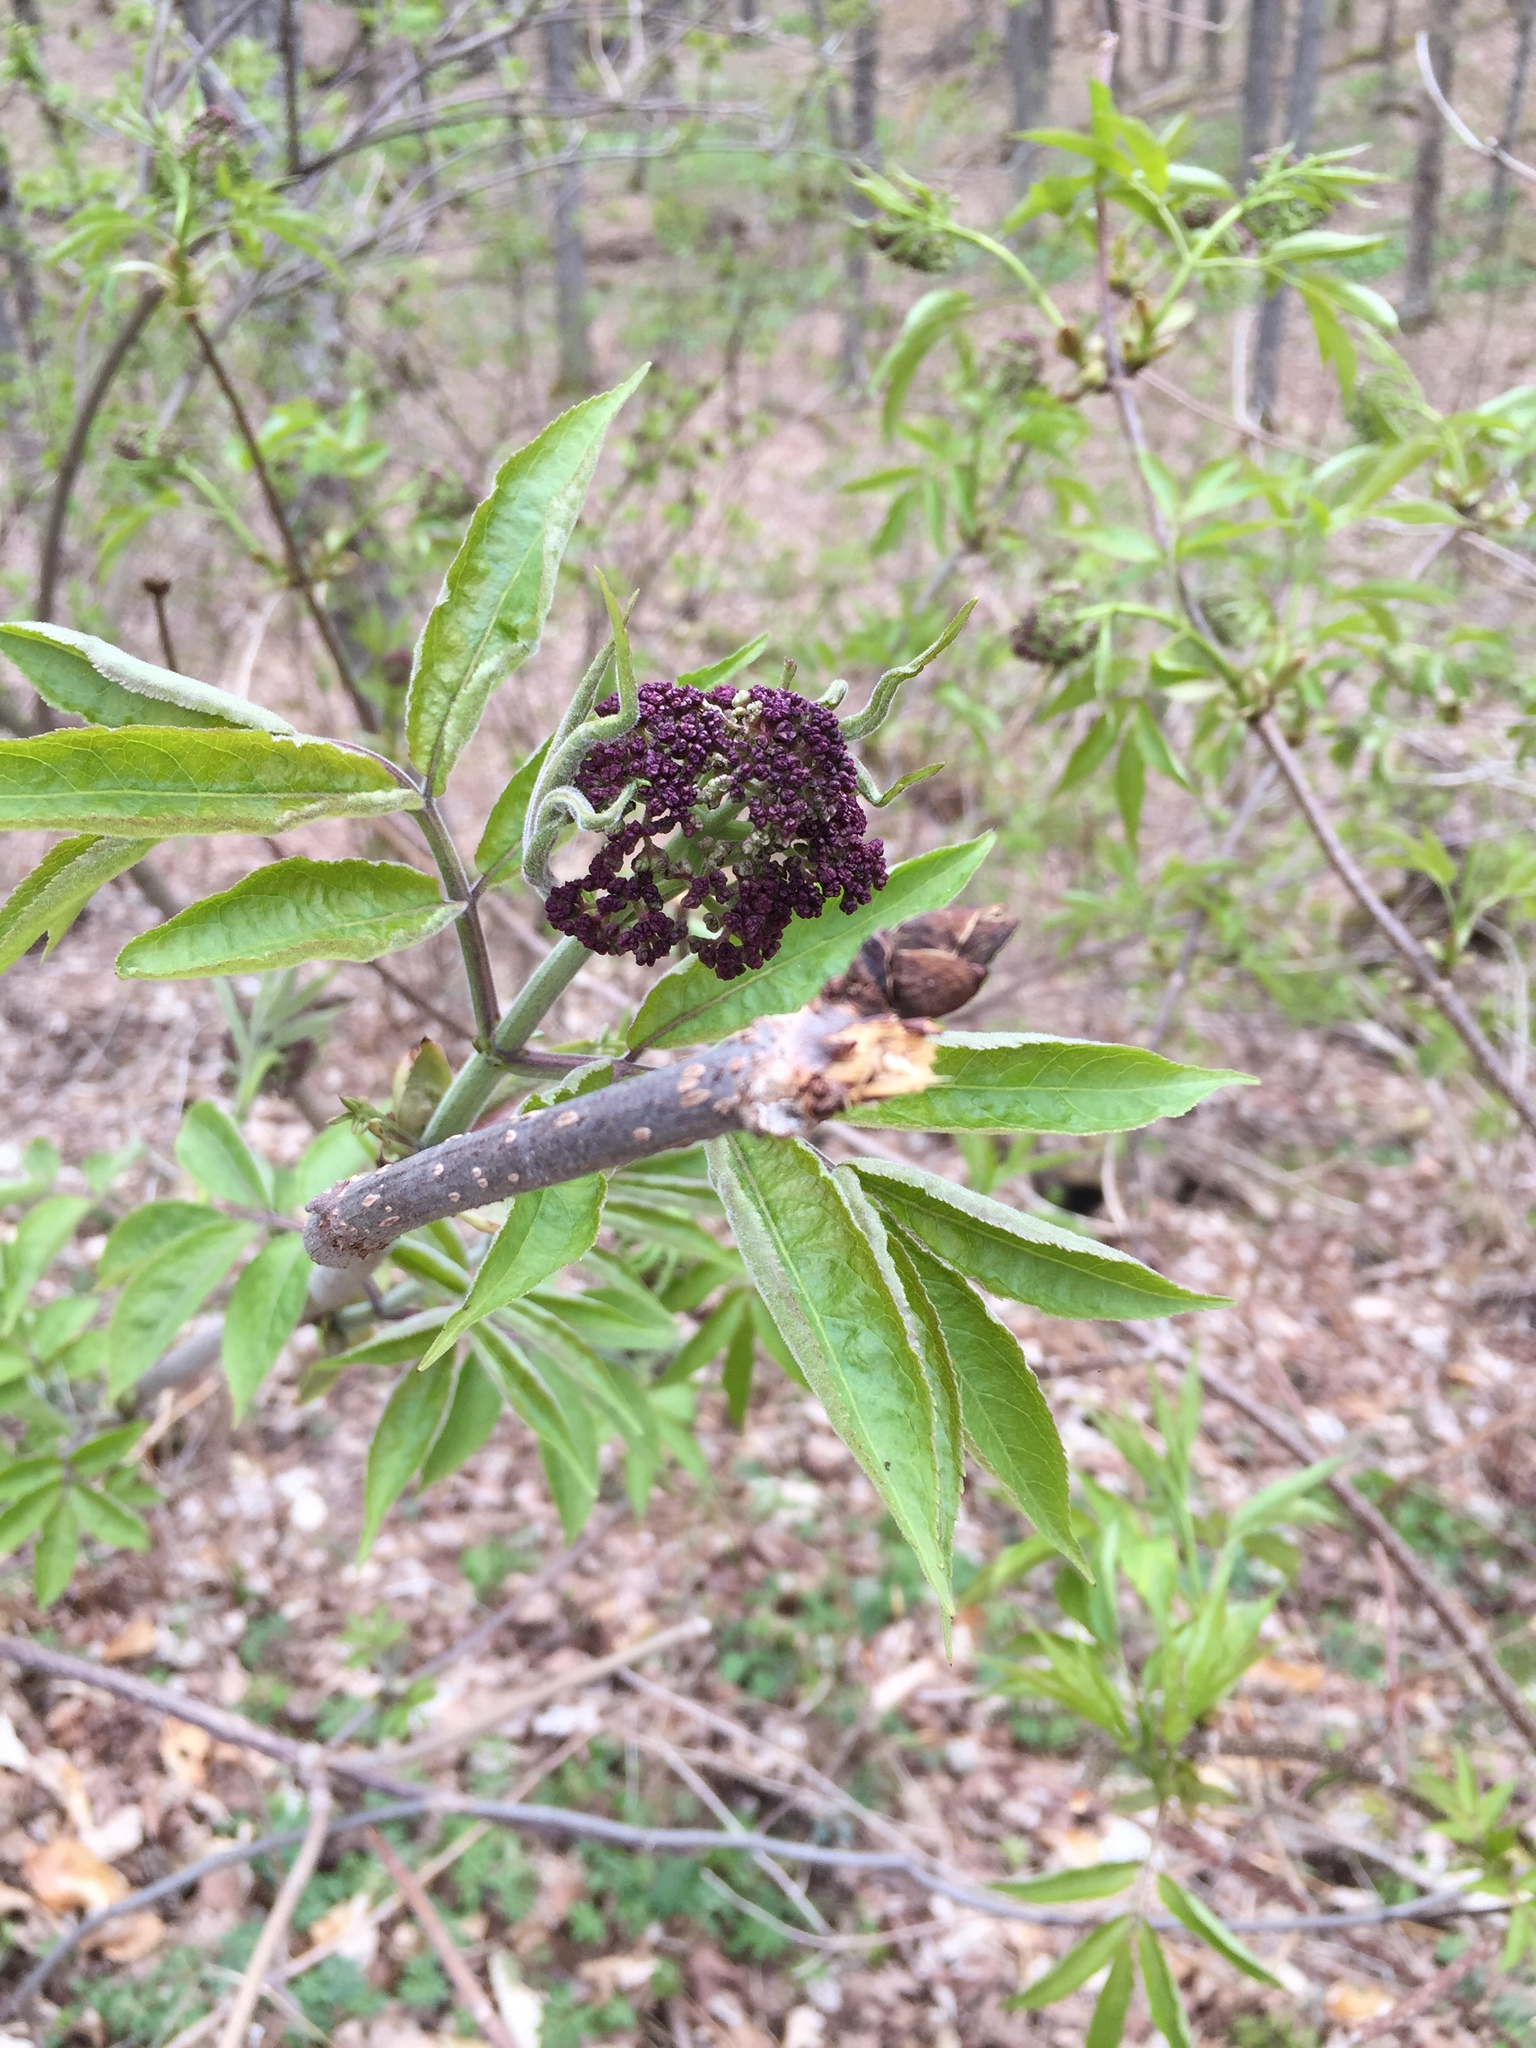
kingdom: Plantae
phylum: Tracheophyta
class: Magnoliopsida
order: Dipsacales
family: Viburnaceae
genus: Sambucus
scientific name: Sambucus racemosa
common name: Red-berried elder
